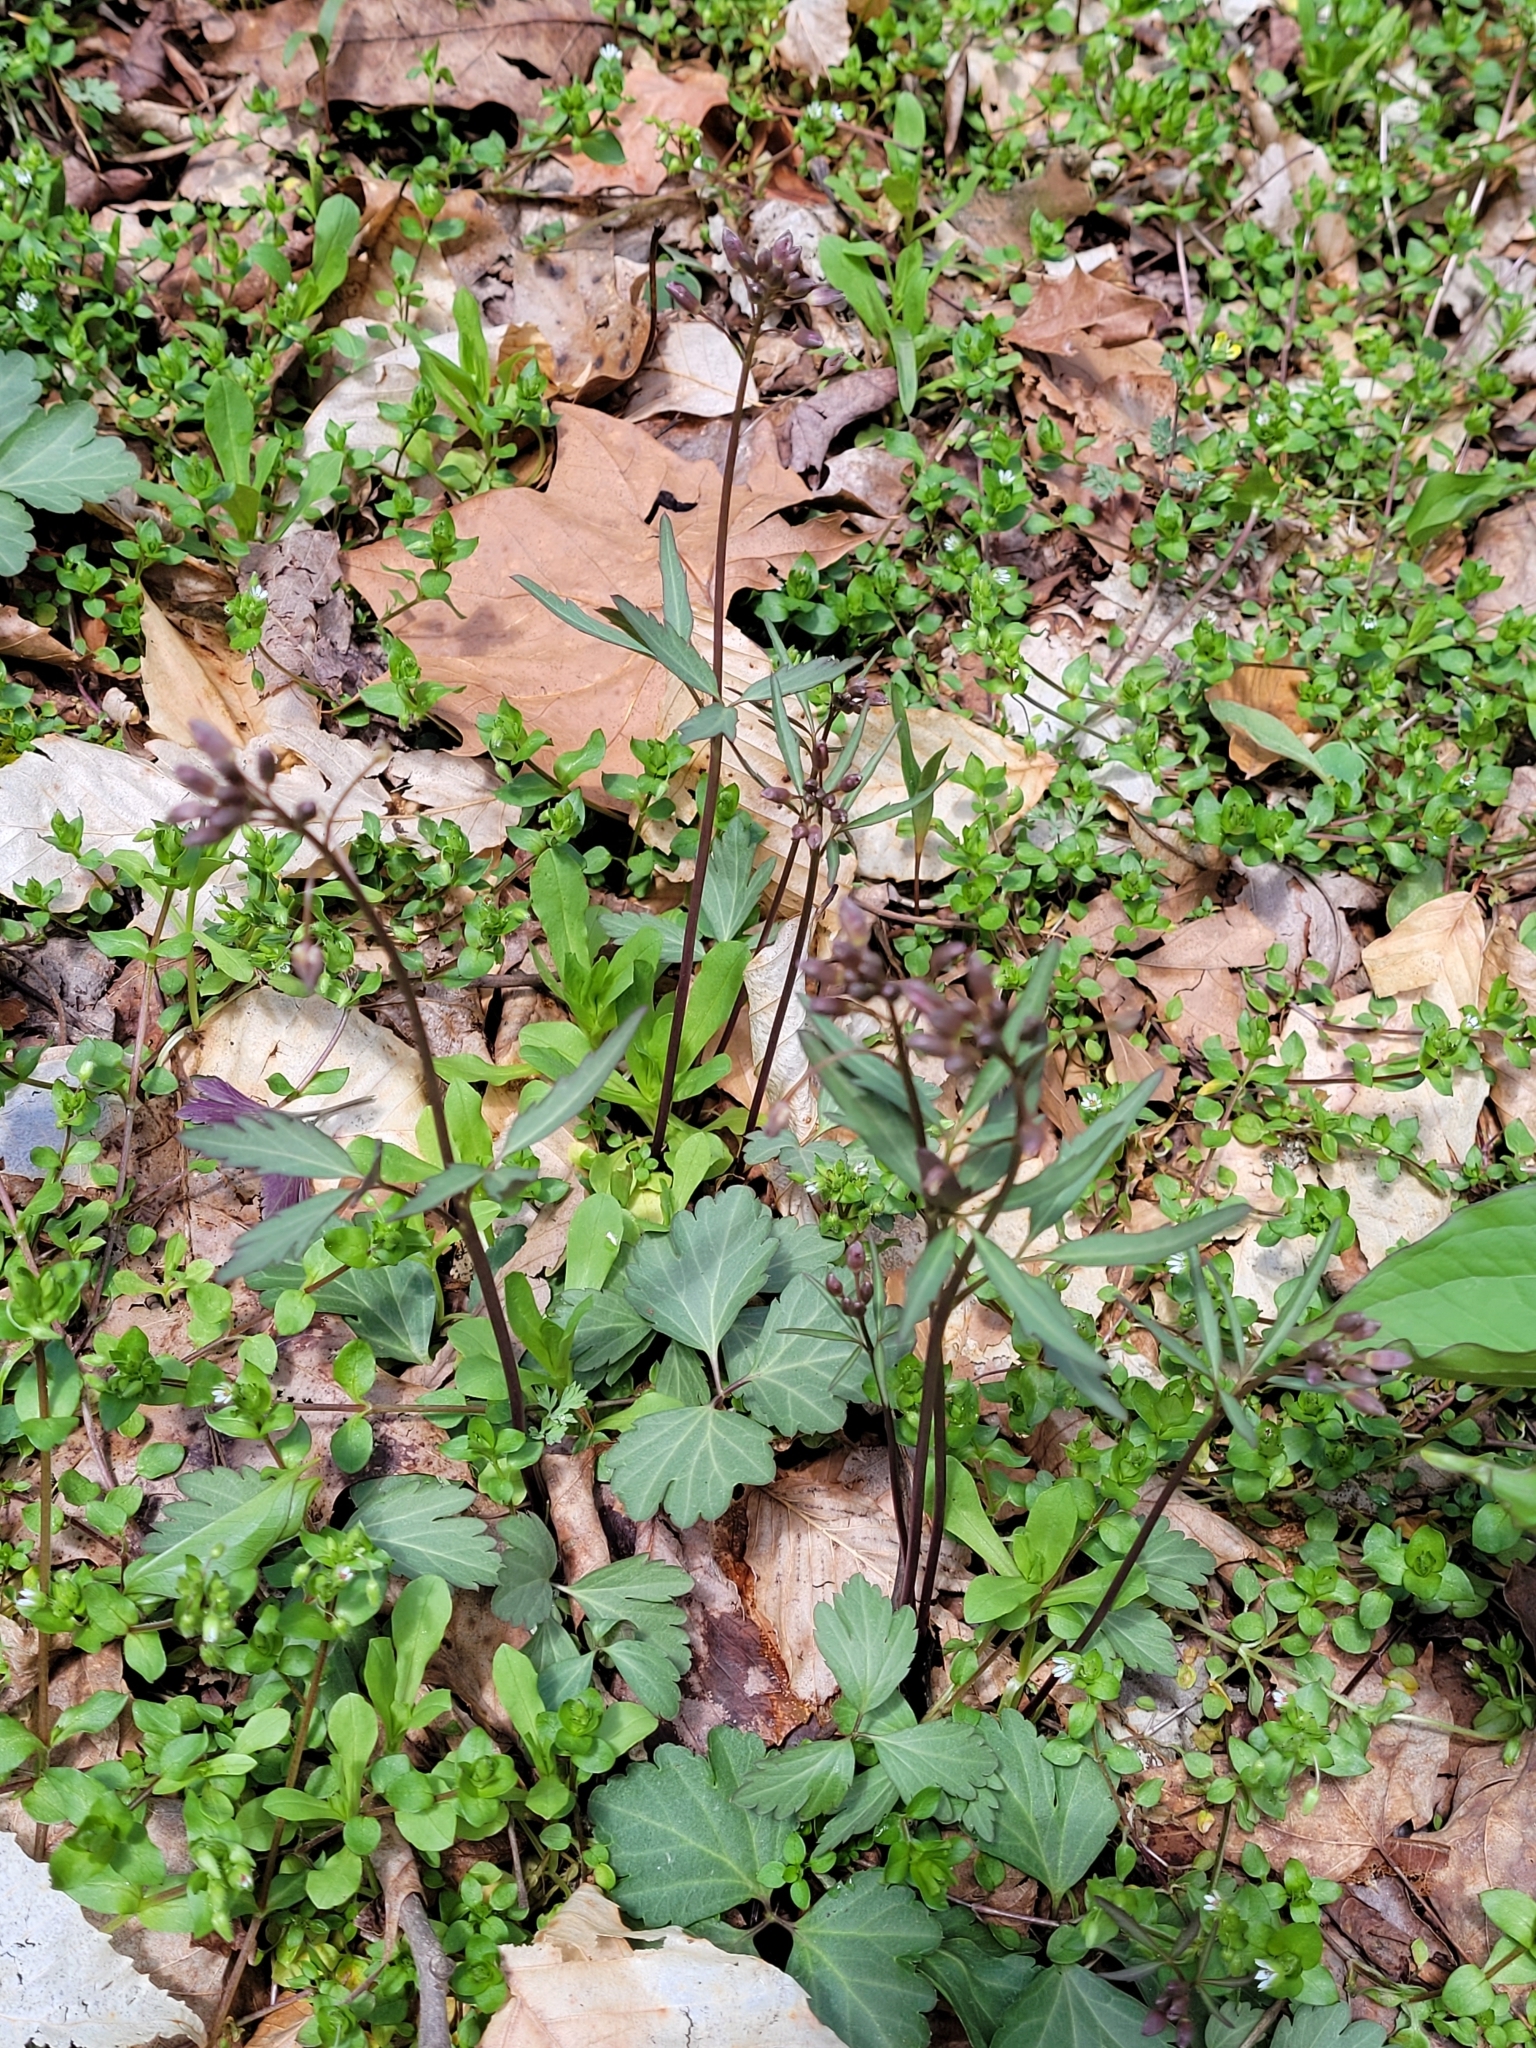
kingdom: Plantae
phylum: Tracheophyta
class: Magnoliopsida
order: Brassicales
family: Brassicaceae
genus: Cardamine
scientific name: Cardamine angustata
